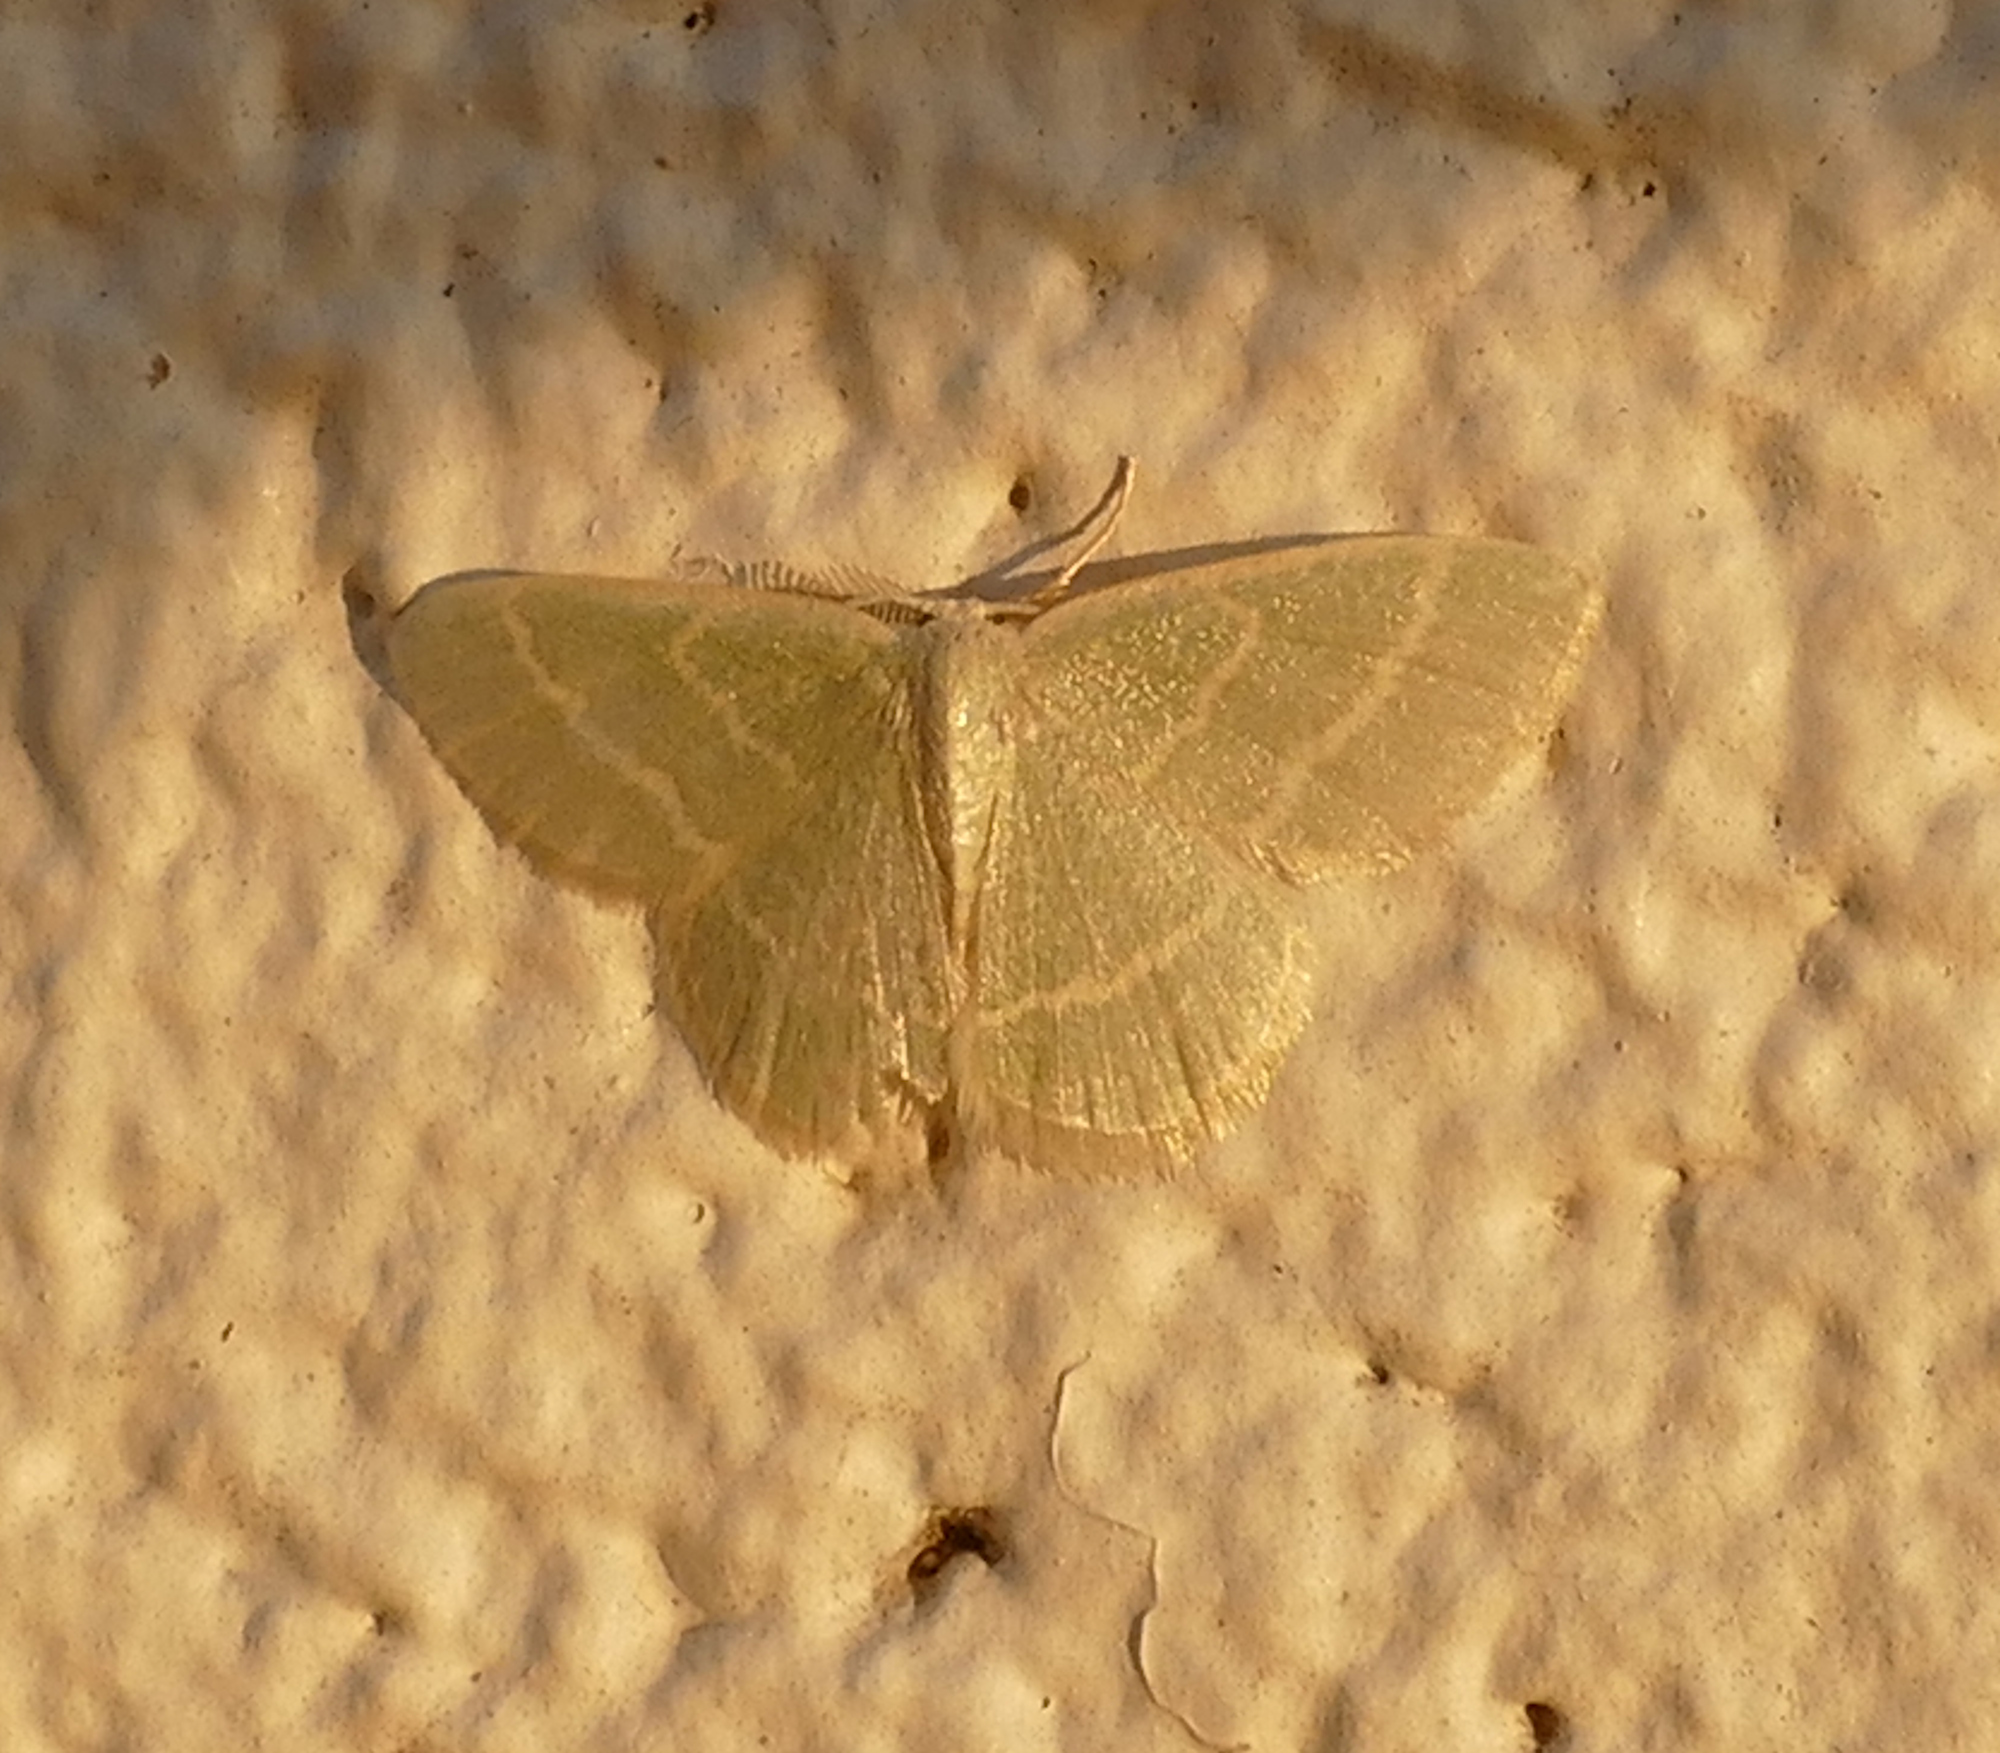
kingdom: Animalia
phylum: Arthropoda
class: Insecta
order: Lepidoptera
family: Geometridae
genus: Chlorochlamys
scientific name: Chlorochlamys chloroleucaria
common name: Blackberry looper
